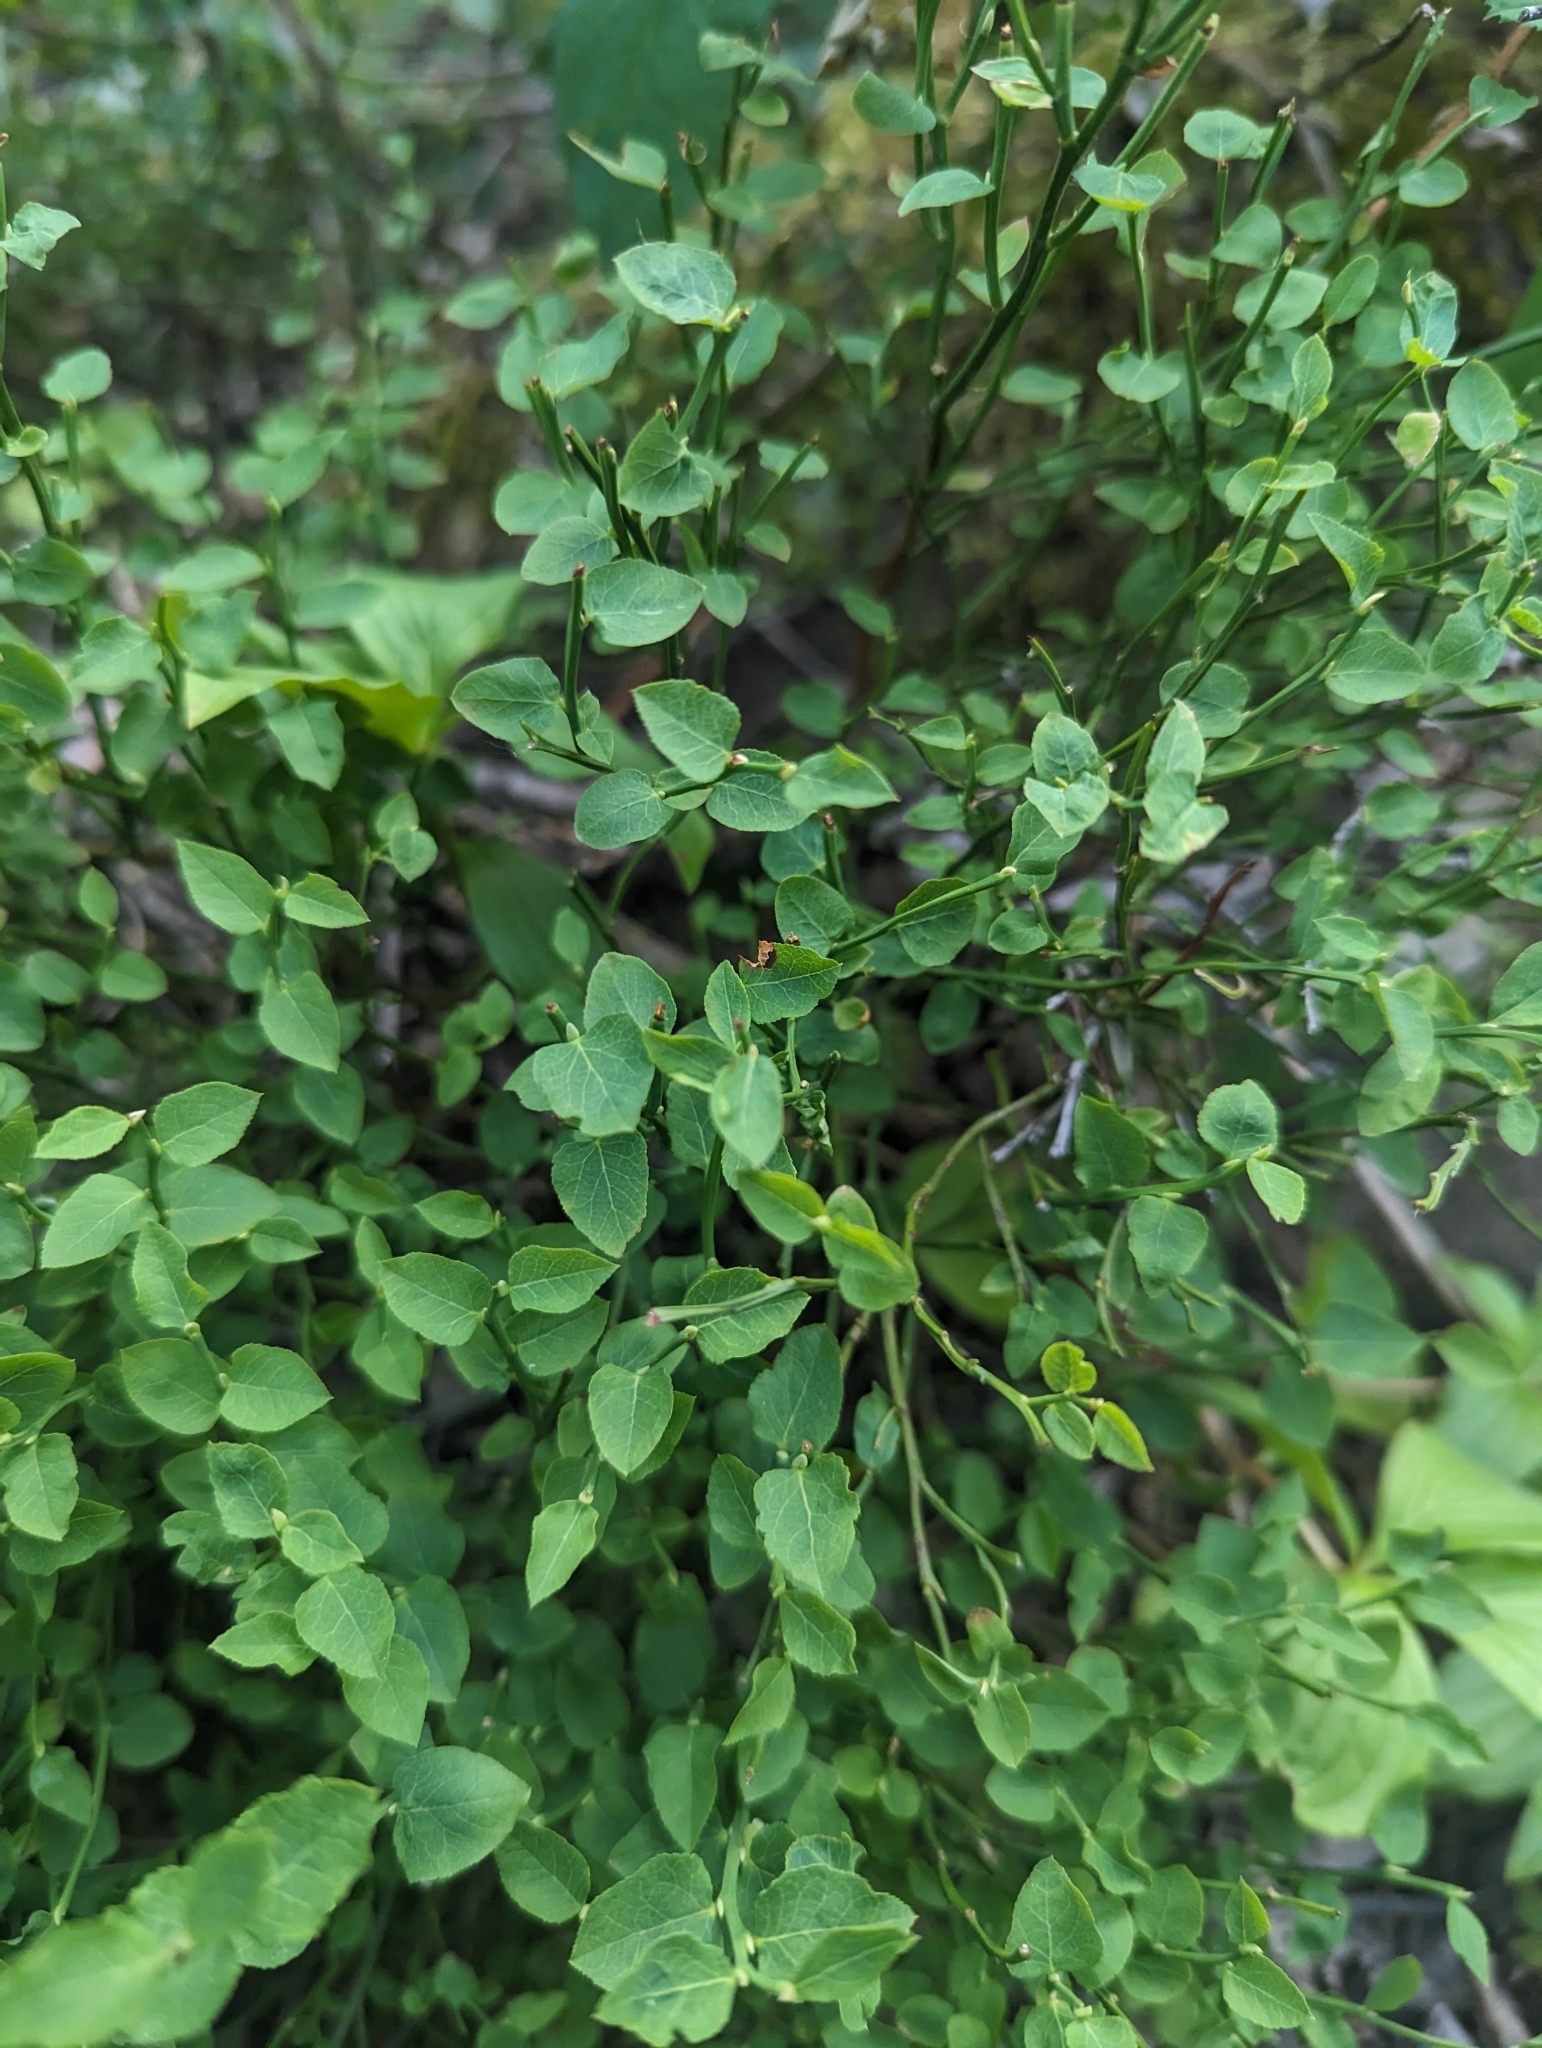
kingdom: Plantae
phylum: Tracheophyta
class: Magnoliopsida
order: Ericales
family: Ericaceae
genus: Vaccinium
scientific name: Vaccinium scoparium
